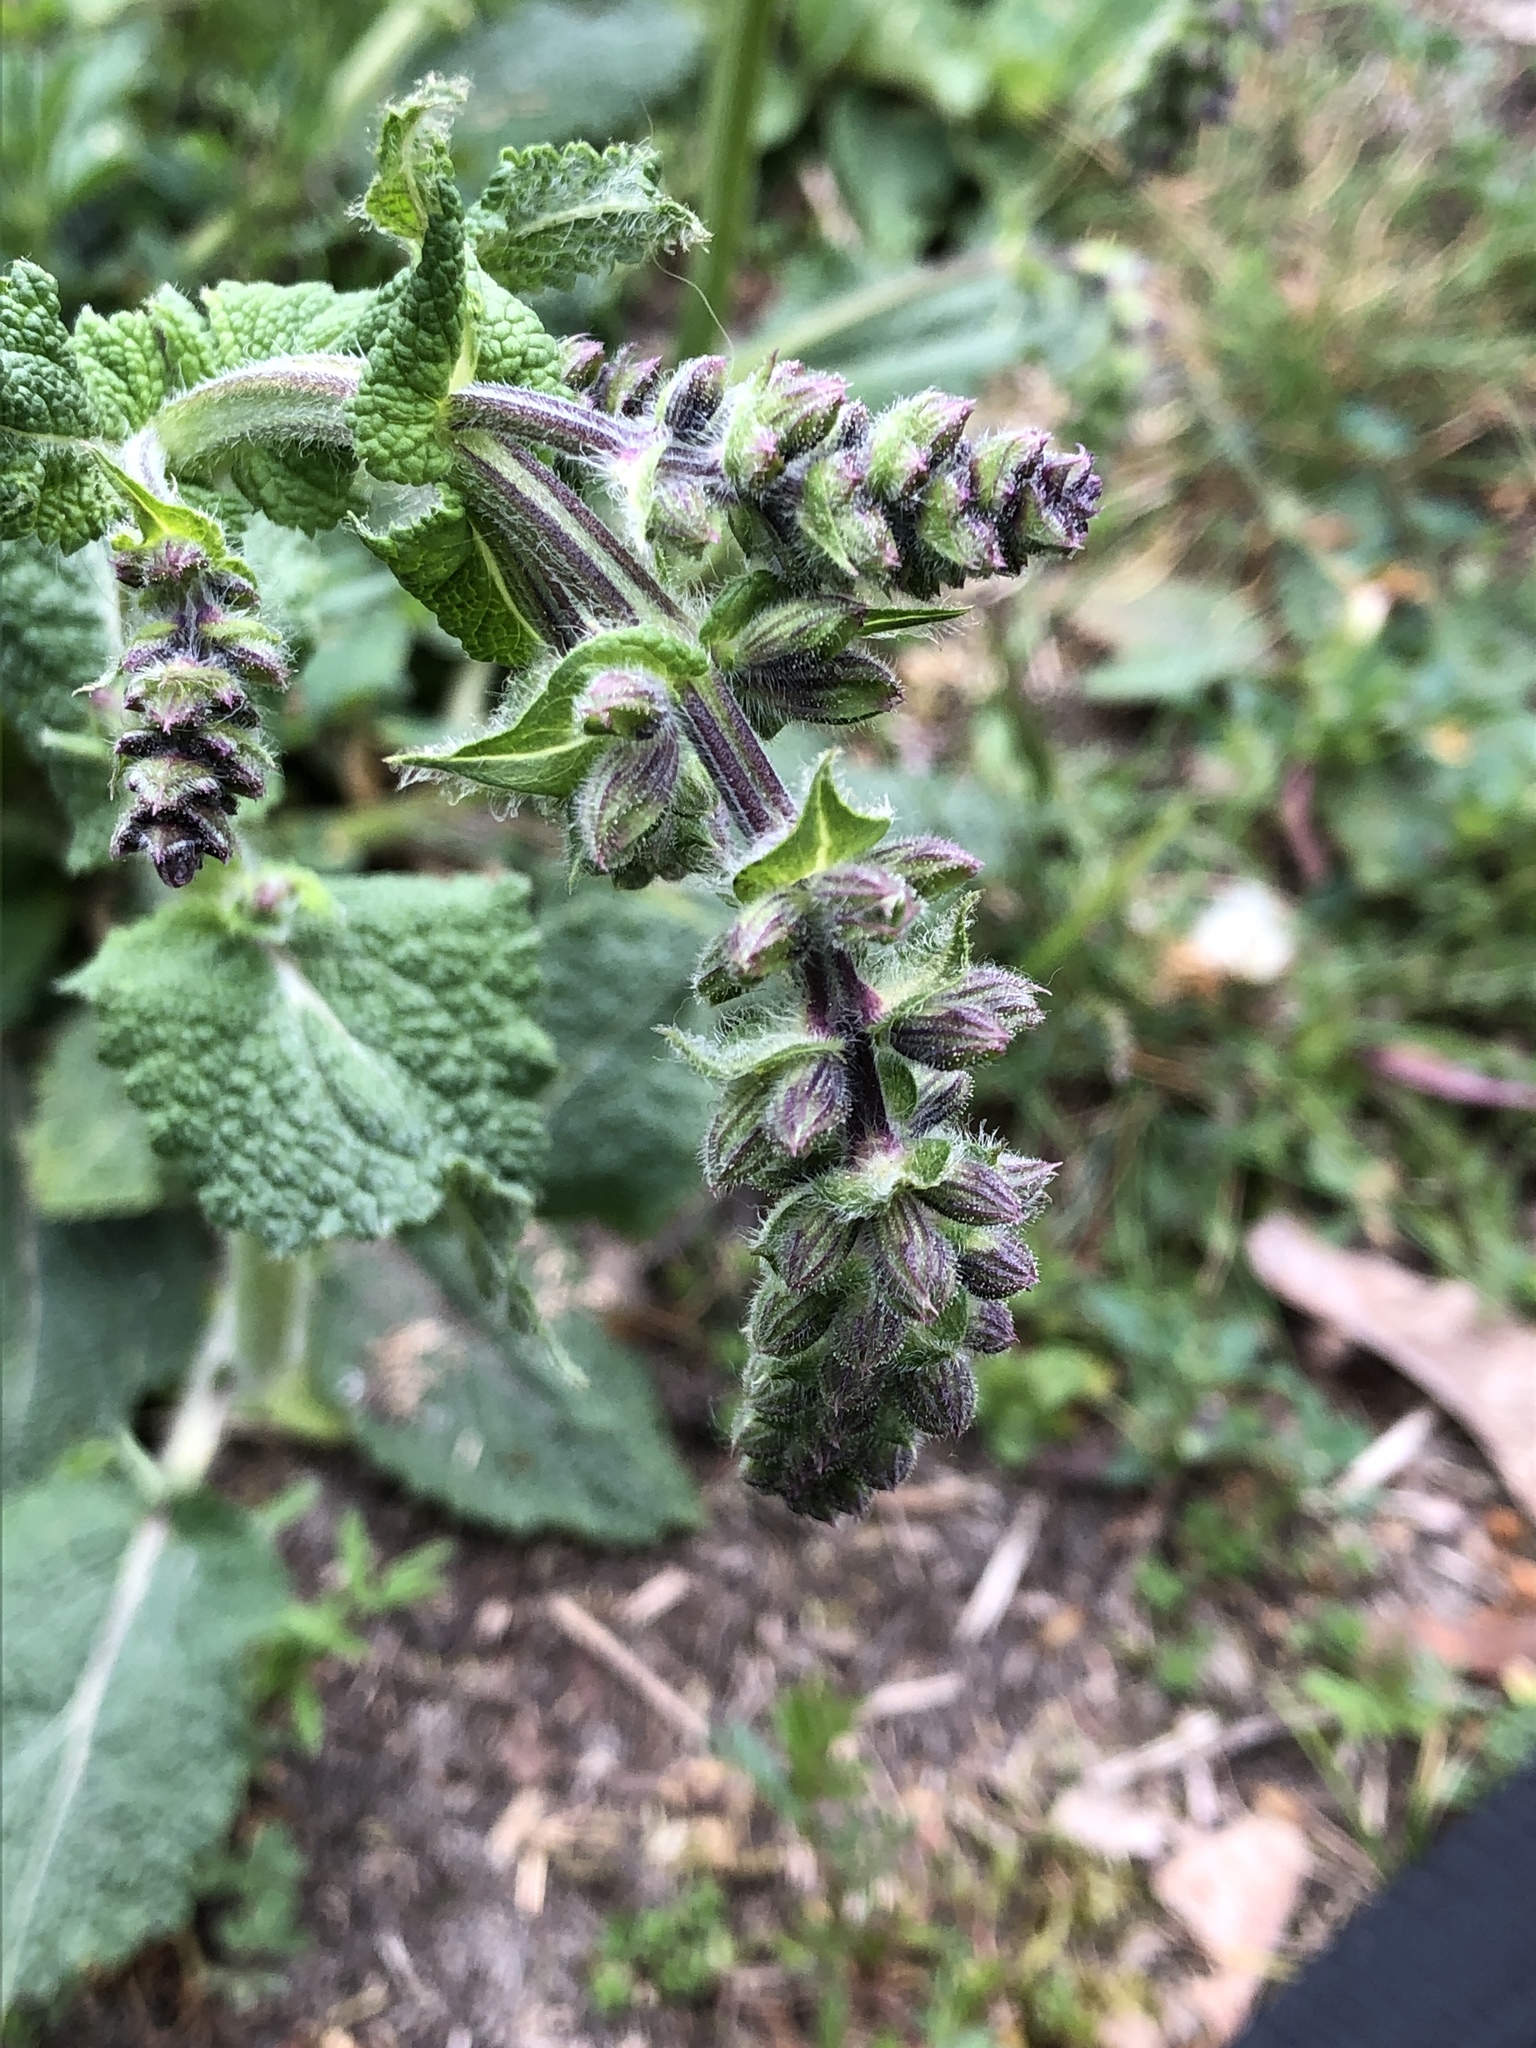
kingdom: Plantae
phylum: Tracheophyta
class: Magnoliopsida
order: Lamiales
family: Lamiaceae
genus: Salvia
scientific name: Salvia pratensis
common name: Meadow sage
